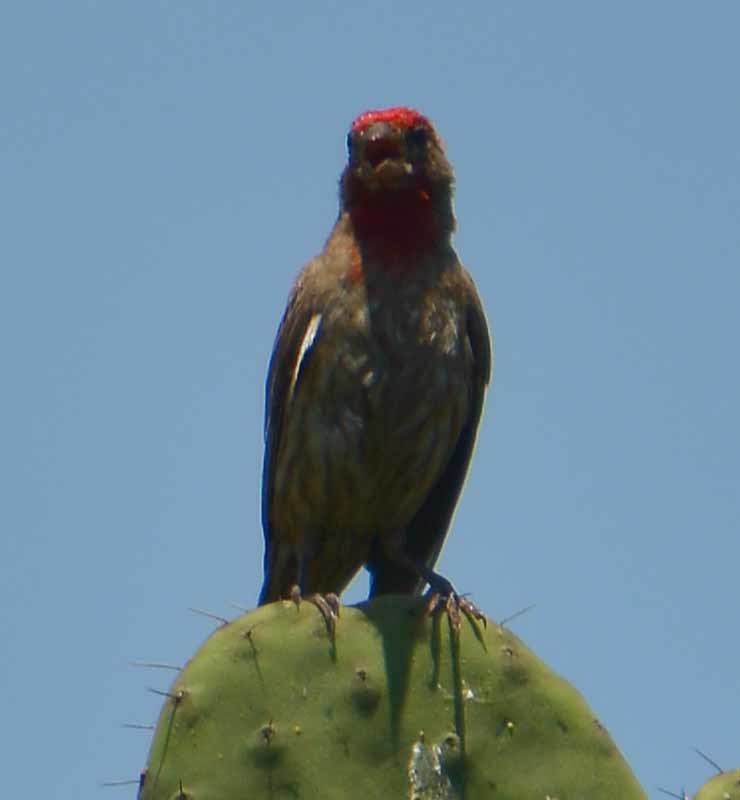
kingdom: Animalia
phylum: Chordata
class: Aves
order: Passeriformes
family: Fringillidae
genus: Haemorhous
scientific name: Haemorhous mexicanus
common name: House finch
